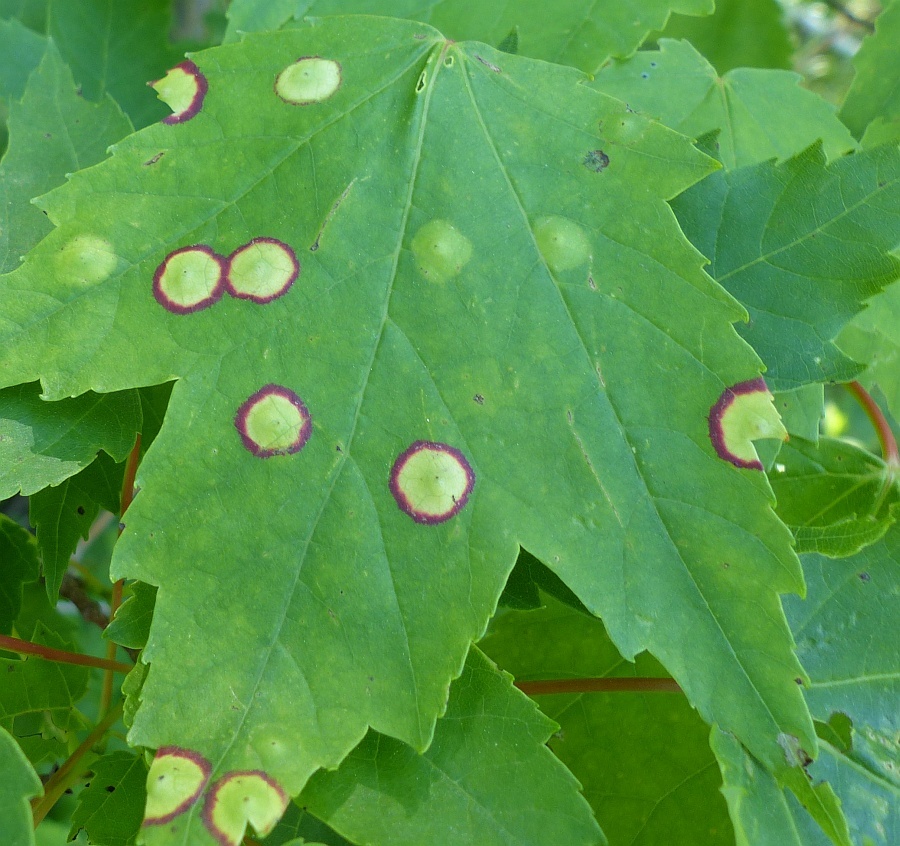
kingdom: Animalia
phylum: Arthropoda
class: Insecta
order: Diptera
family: Cecidomyiidae
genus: Acericecis
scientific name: Acericecis ocellaris
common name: Ocellate gall midge
